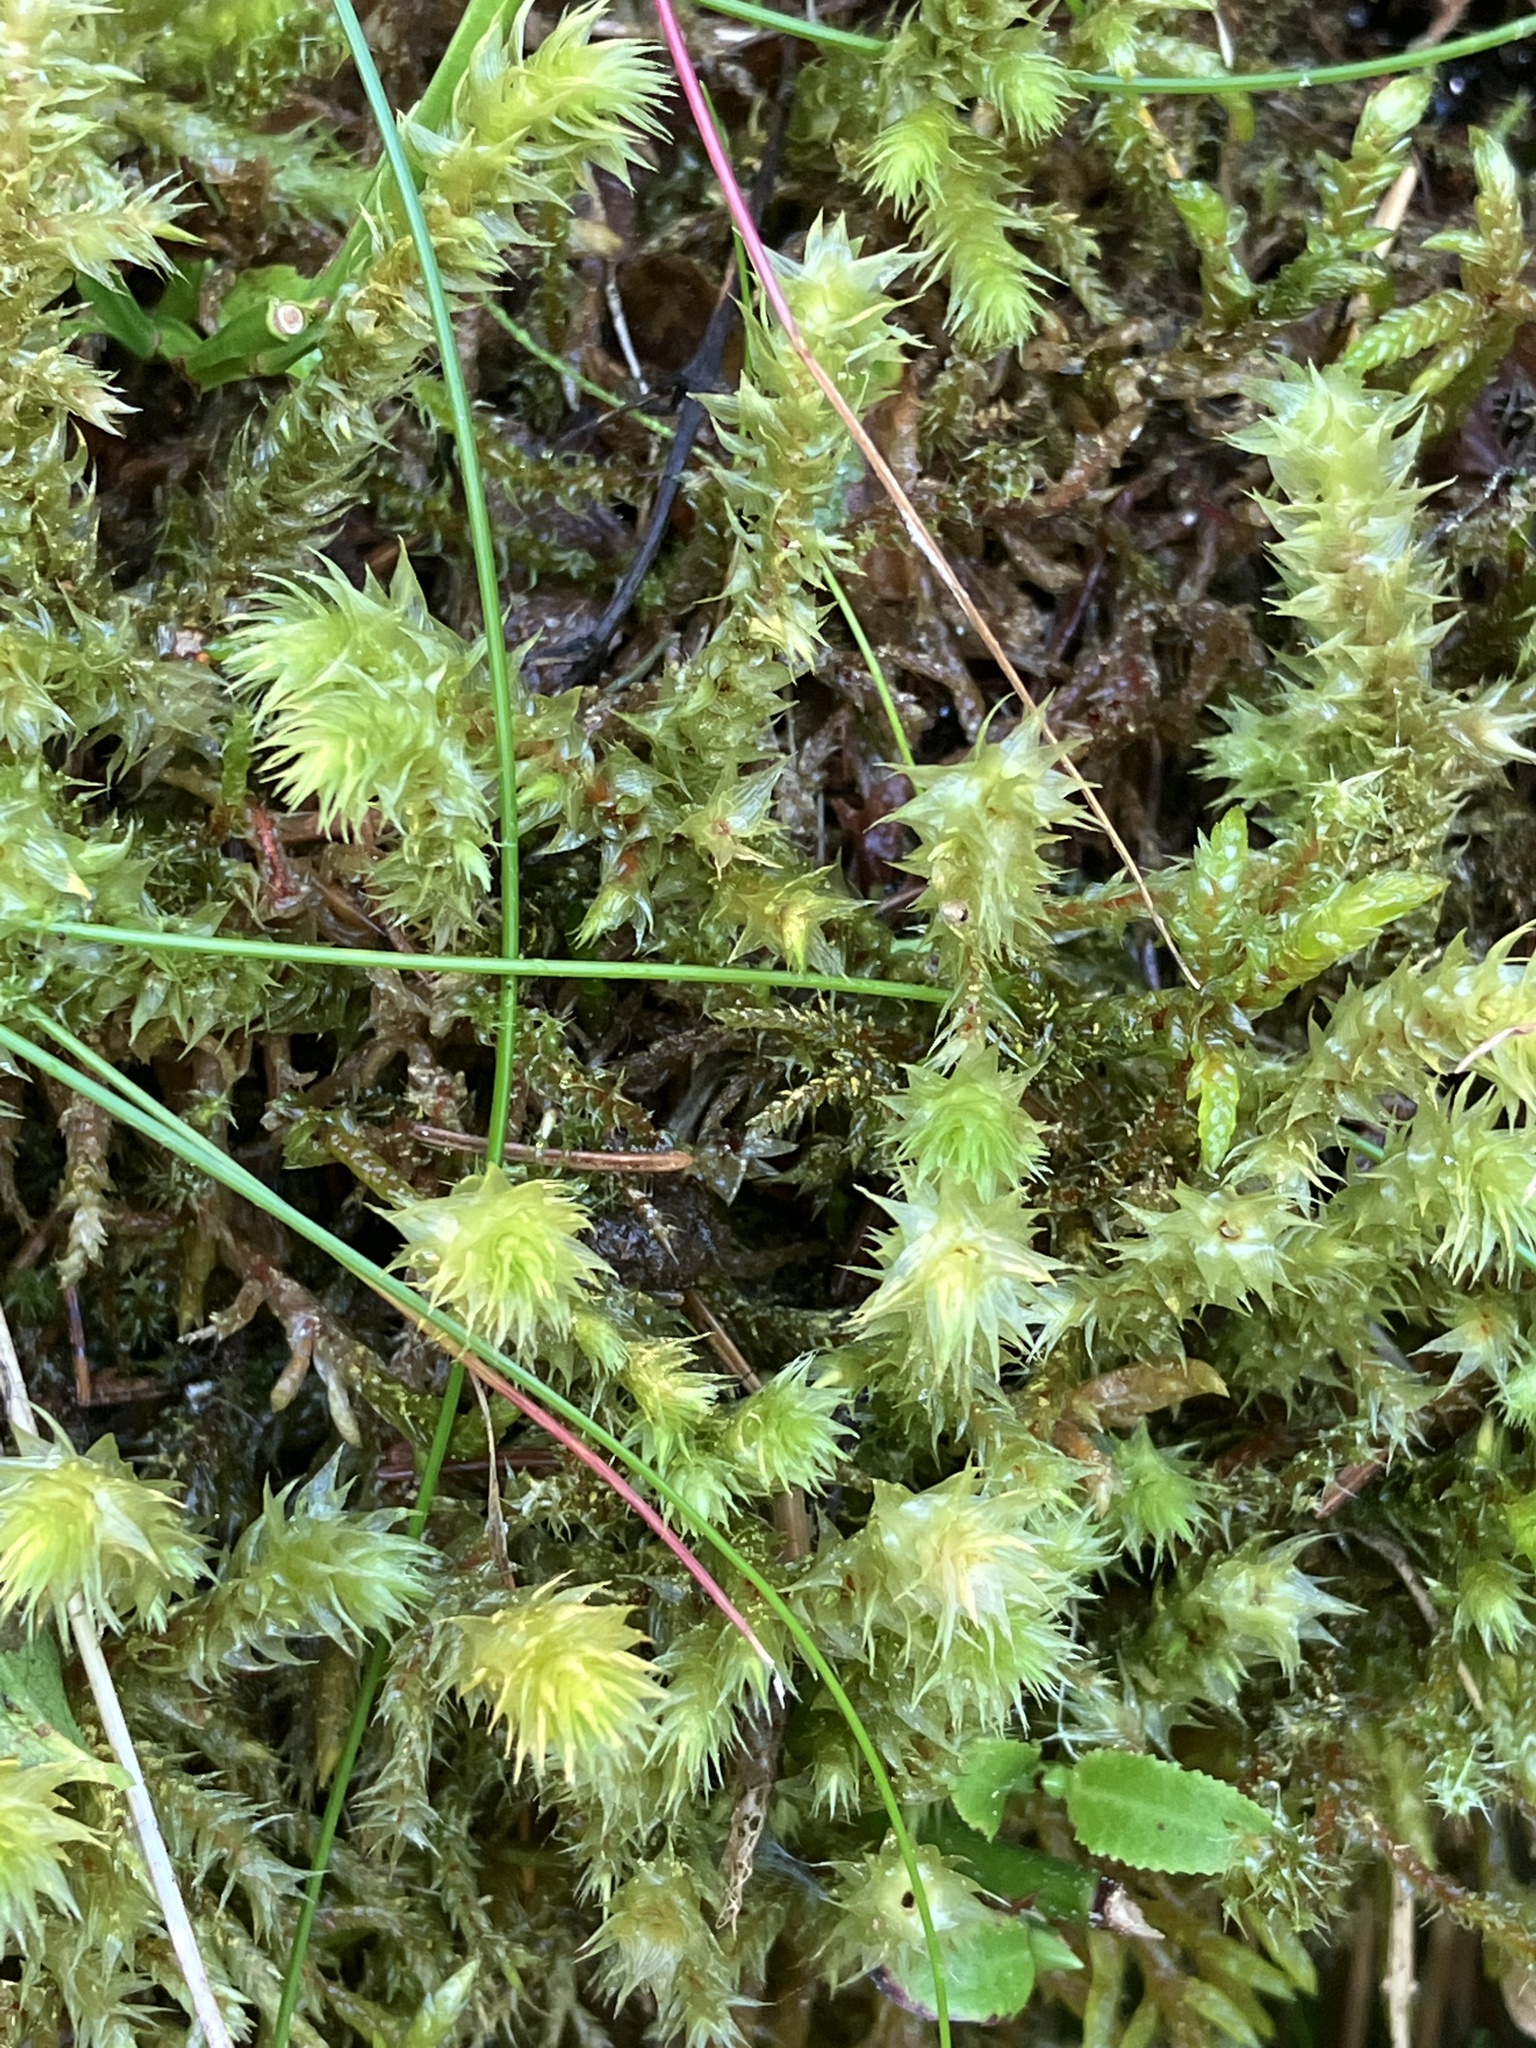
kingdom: Plantae
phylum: Bryophyta
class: Bryopsida
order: Hypnales
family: Hylocomiaceae
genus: Hylocomiadelphus
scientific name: Hylocomiadelphus triquetrus
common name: Rough goose neck moss
